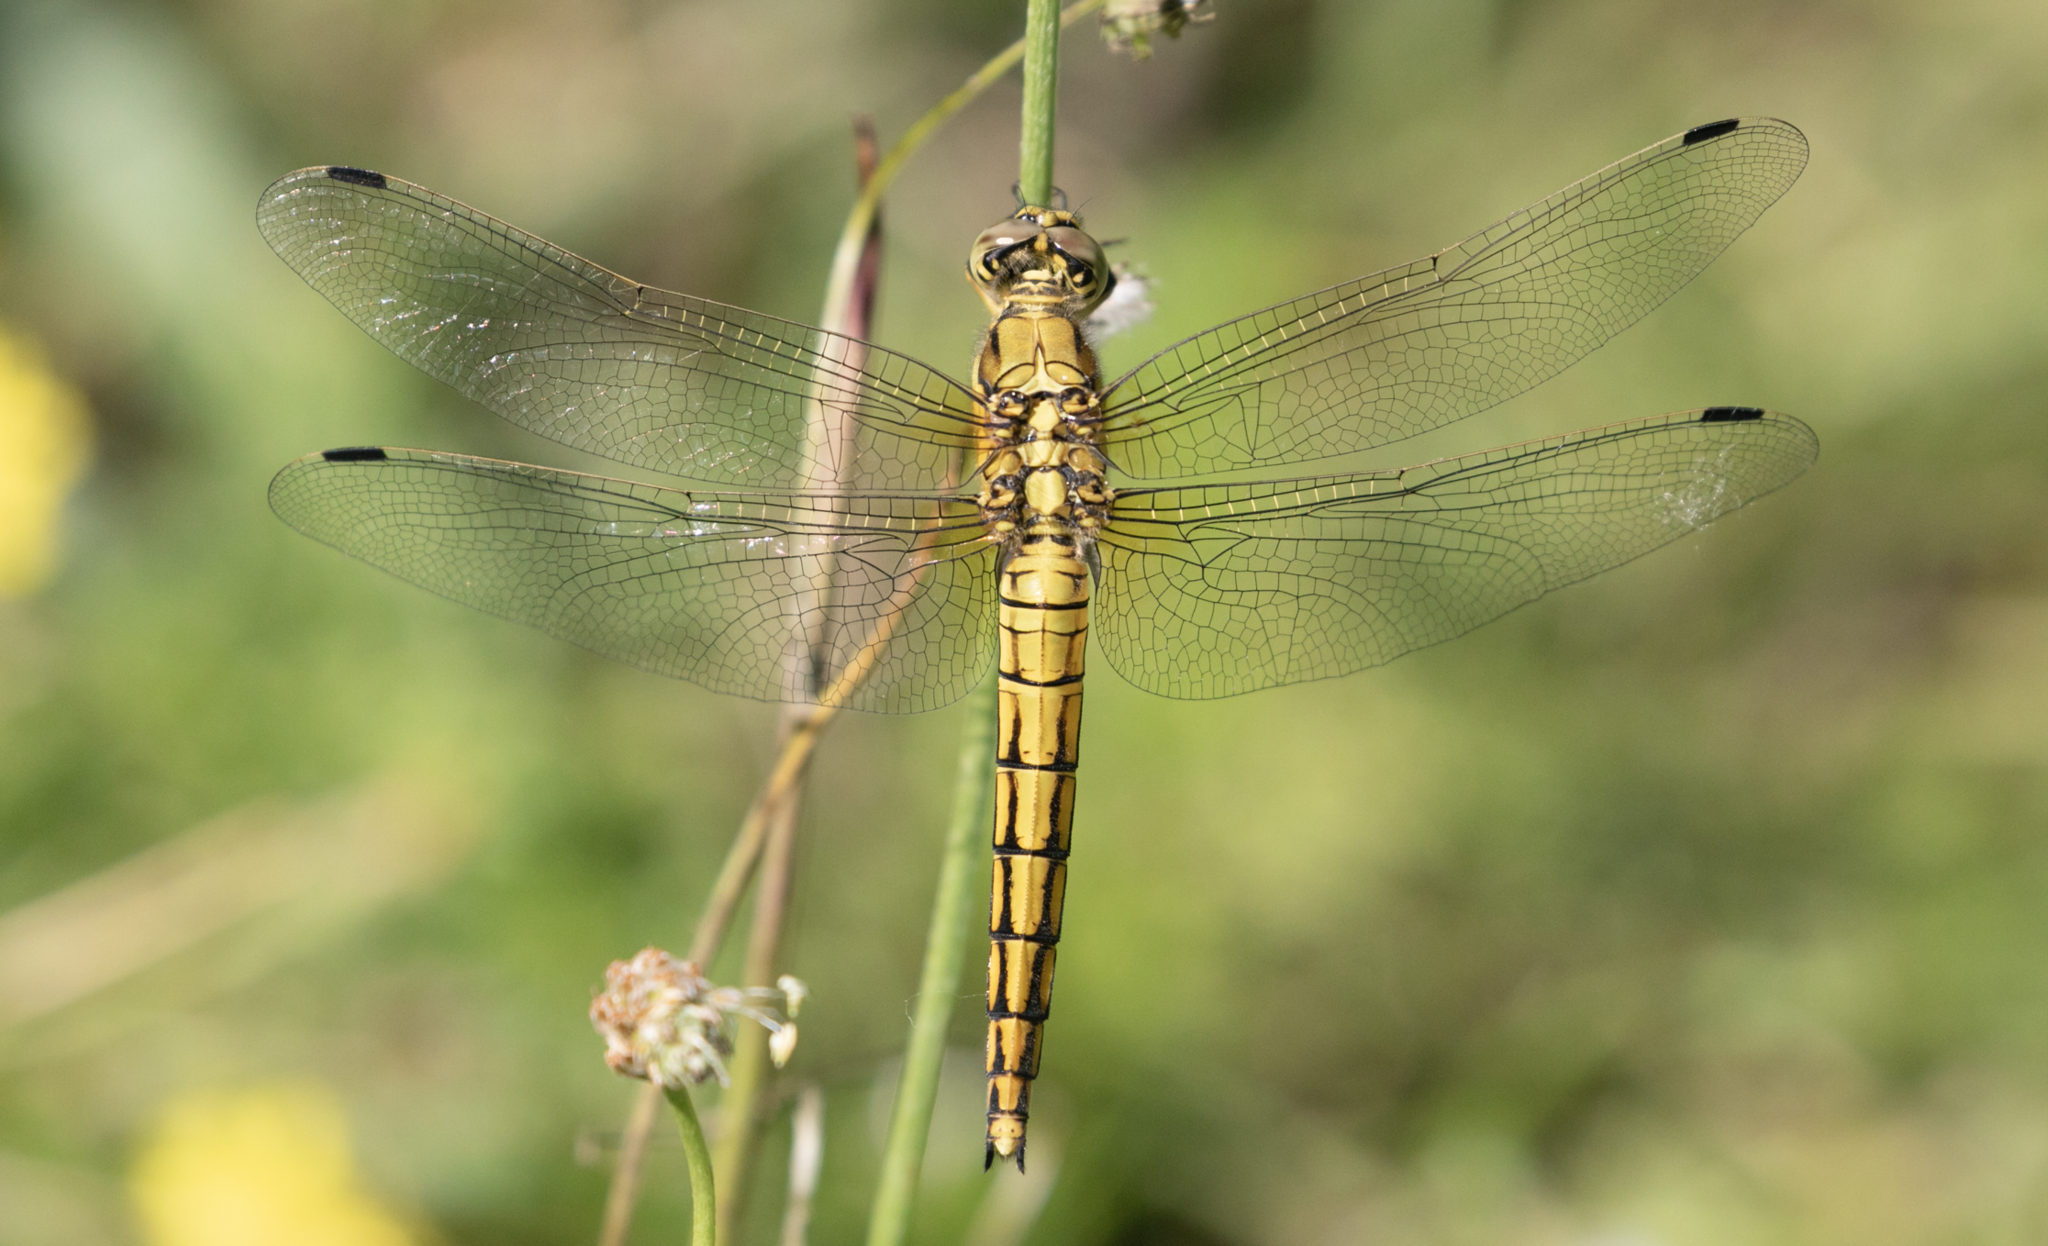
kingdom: Animalia
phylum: Arthropoda
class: Insecta
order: Odonata
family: Libellulidae
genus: Orthetrum
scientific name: Orthetrum cancellatum
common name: Black-tailed skimmer
